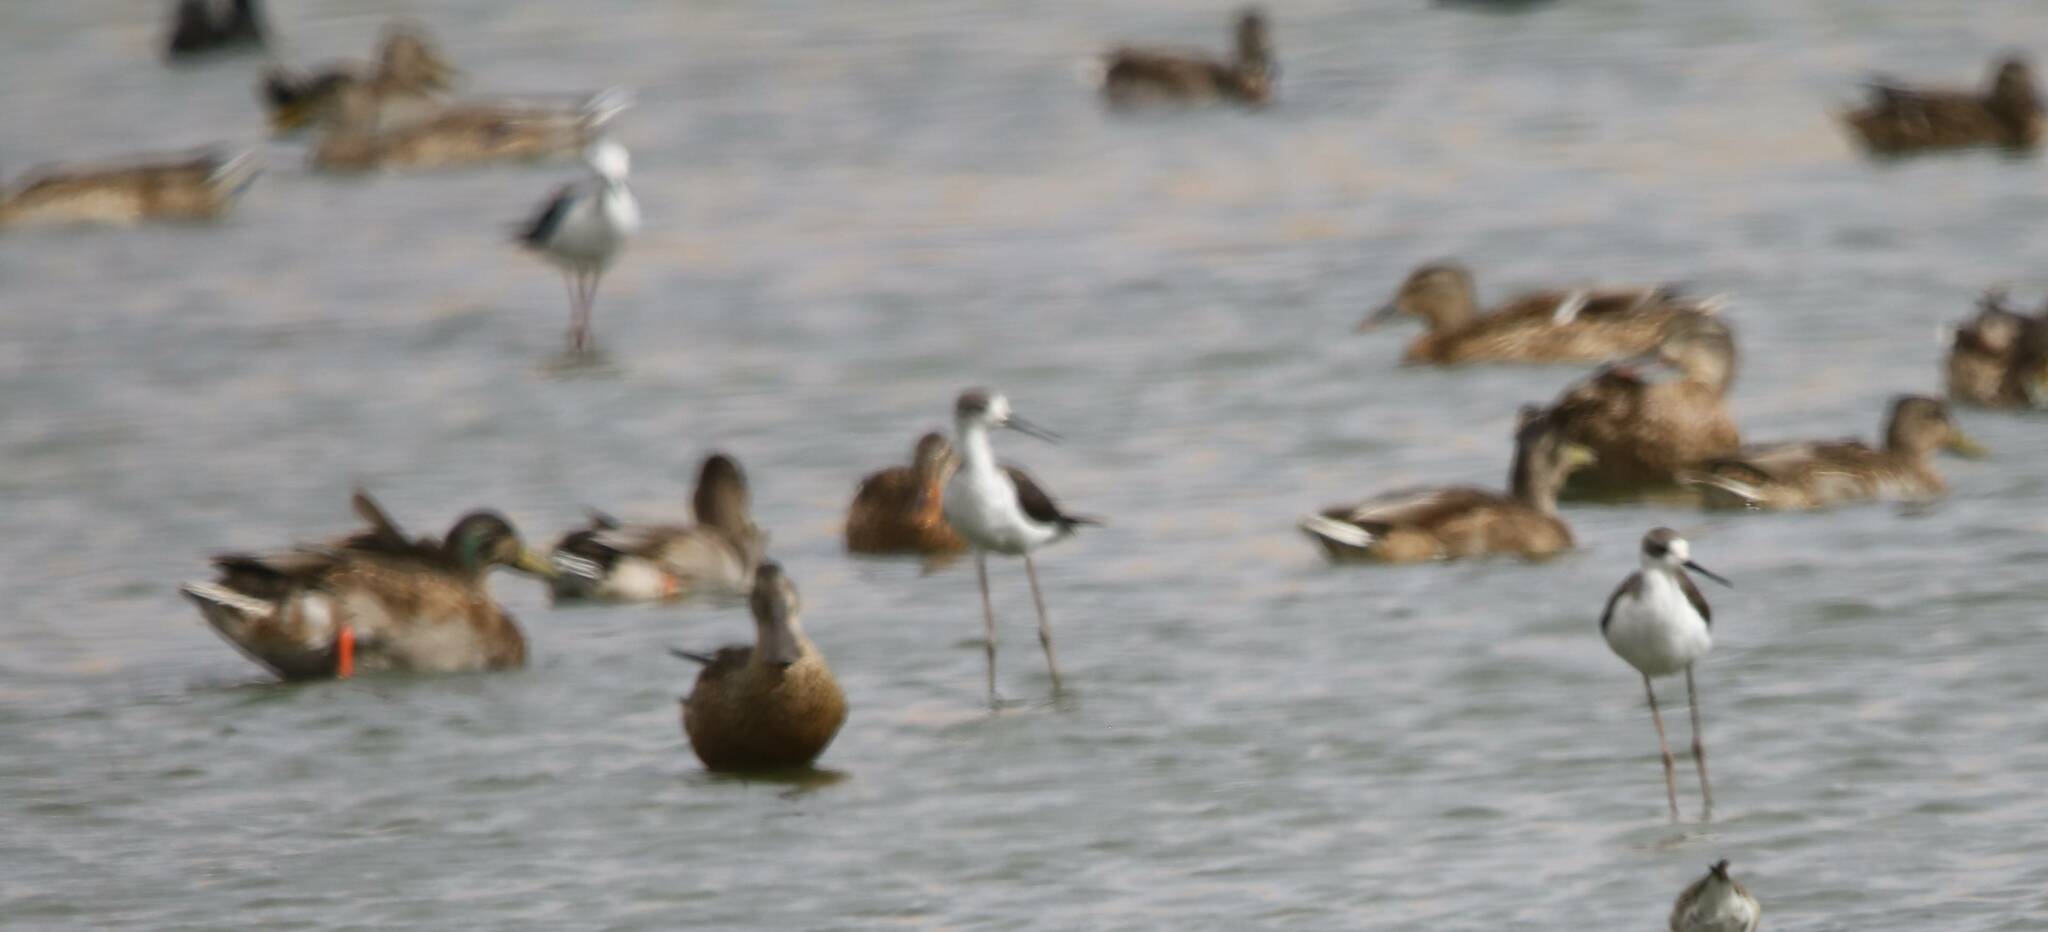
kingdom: Animalia
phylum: Chordata
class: Aves
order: Charadriiformes
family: Recurvirostridae
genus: Himantopus
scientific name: Himantopus himantopus
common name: Black-winged stilt
